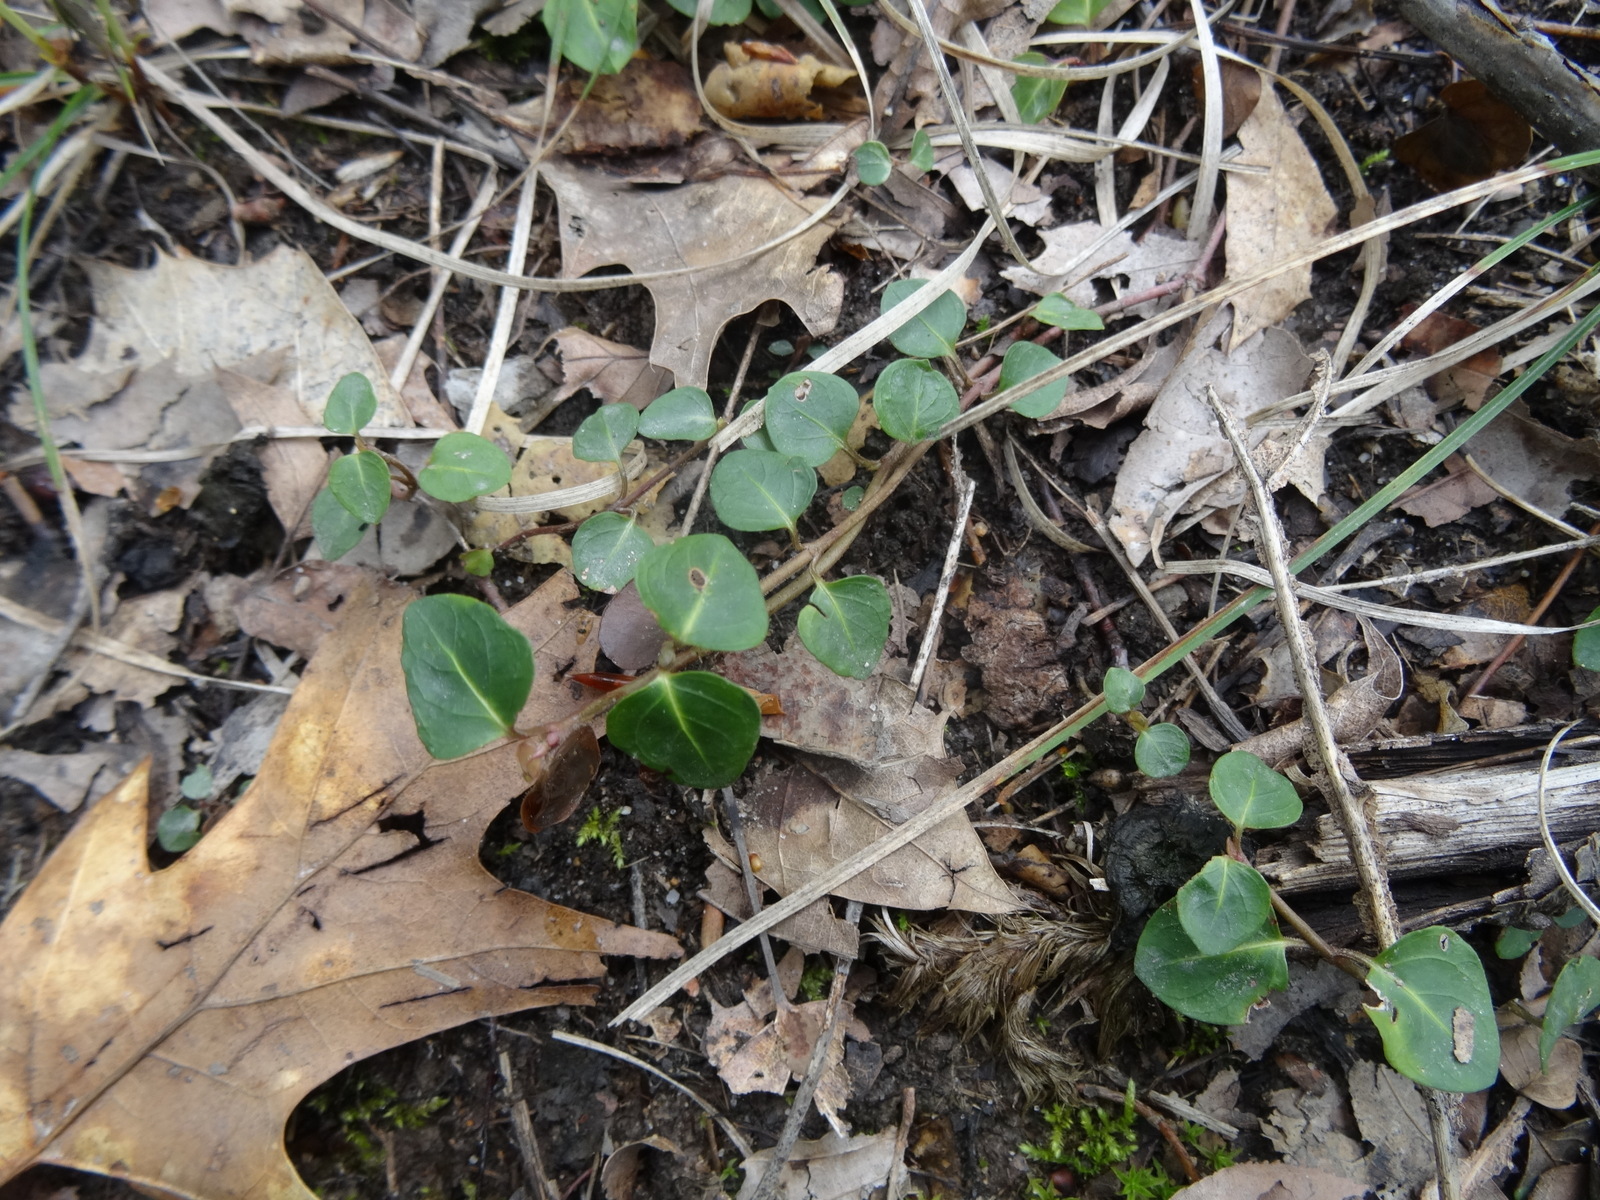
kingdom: Plantae
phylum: Tracheophyta
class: Magnoliopsida
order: Gentianales
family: Rubiaceae
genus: Mitchella
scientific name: Mitchella repens
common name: Partridge-berry
